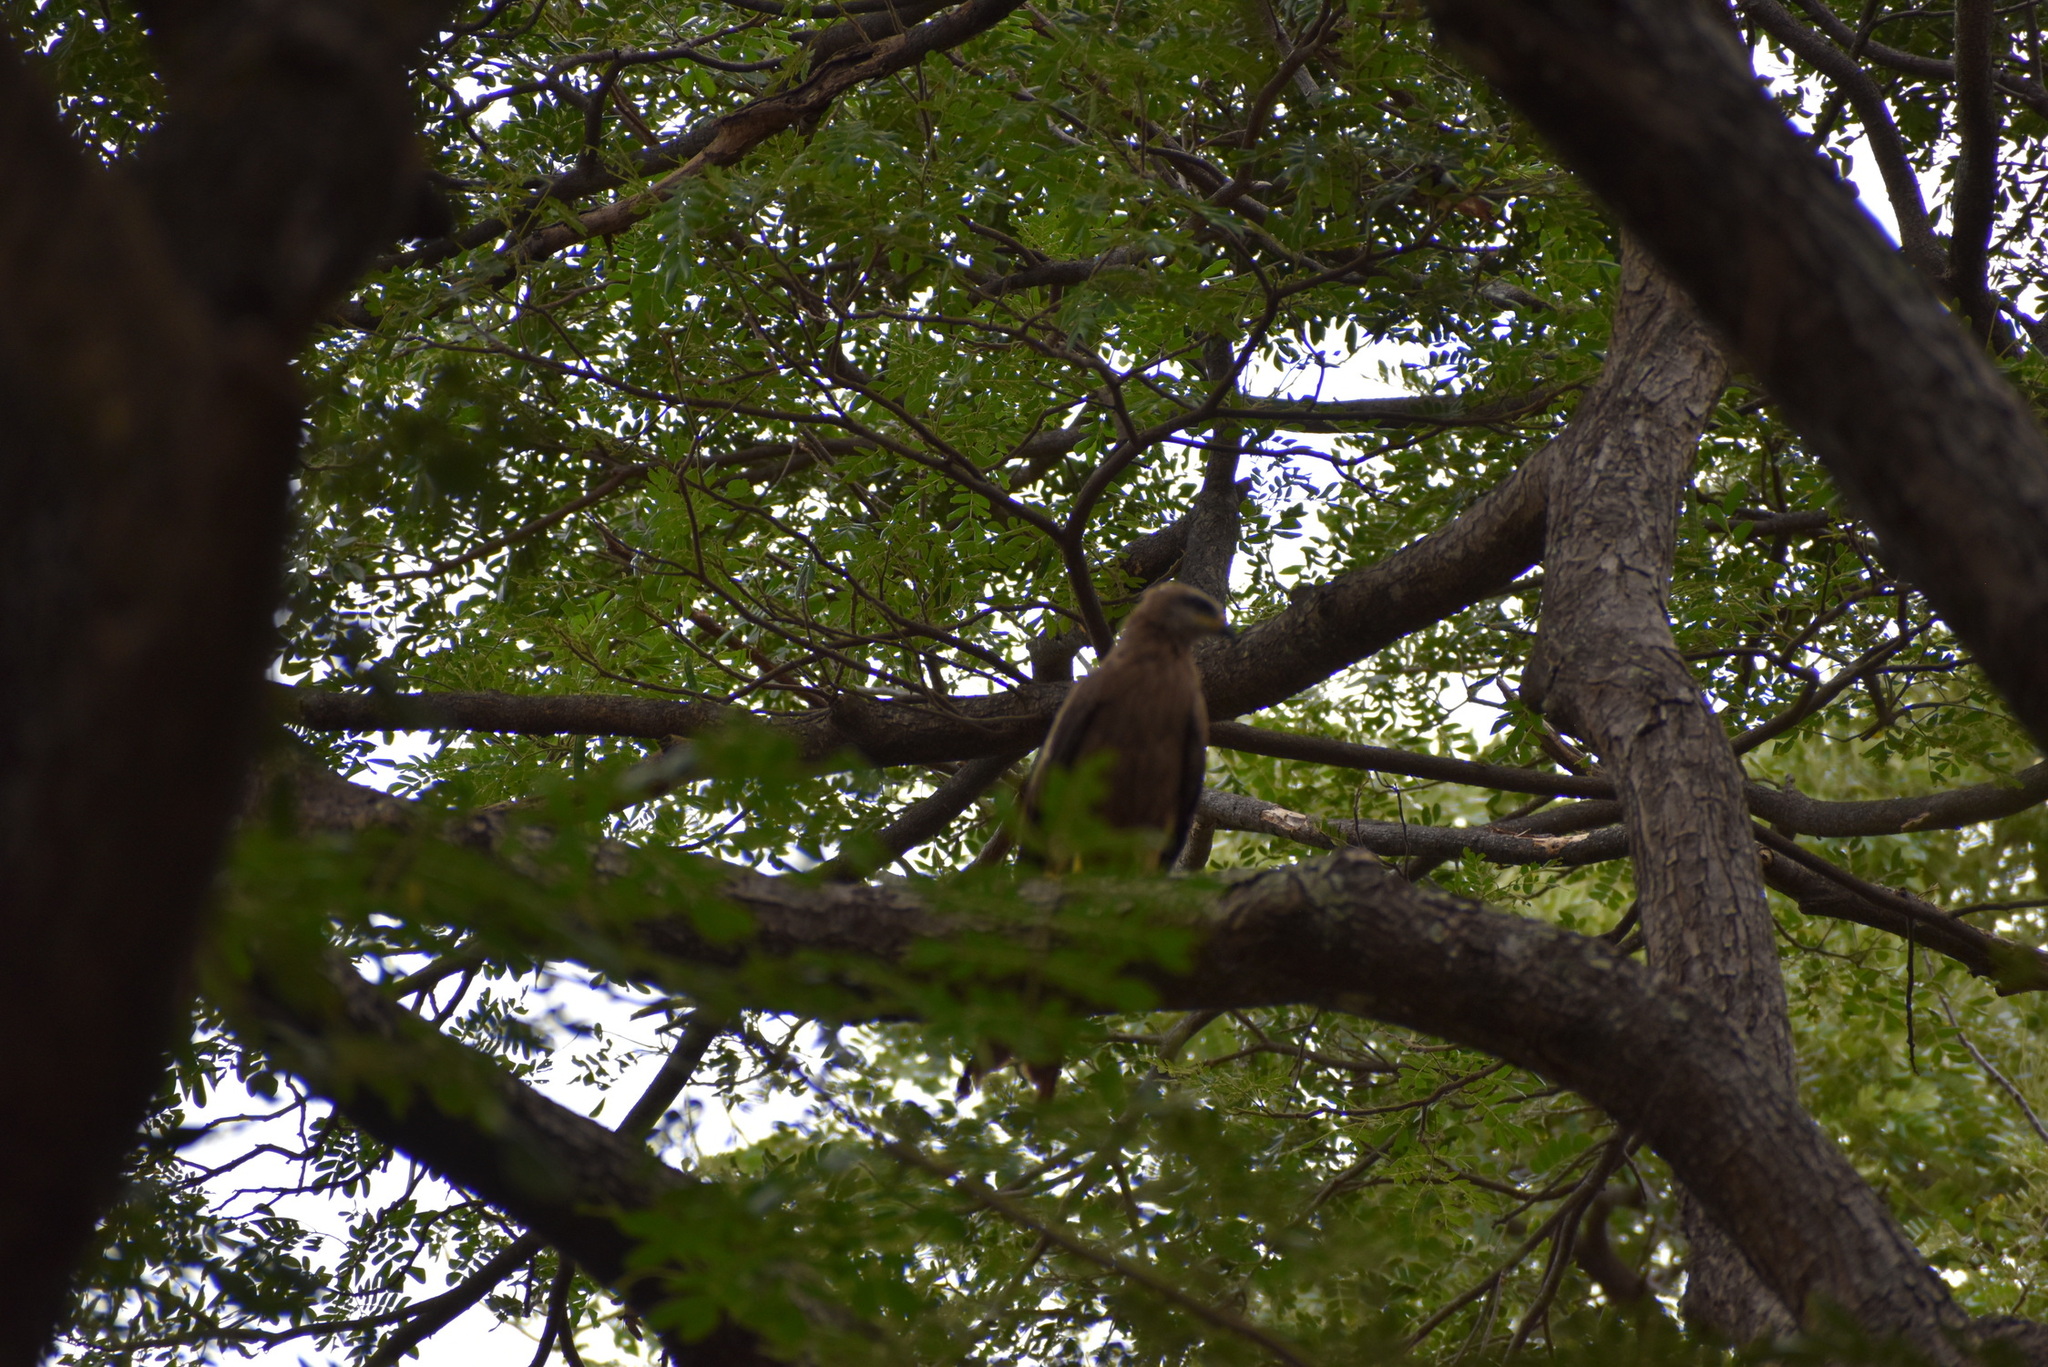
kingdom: Animalia
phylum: Chordata
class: Aves
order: Accipitriformes
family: Accipitridae
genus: Milvus
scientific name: Milvus migrans
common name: Black kite
